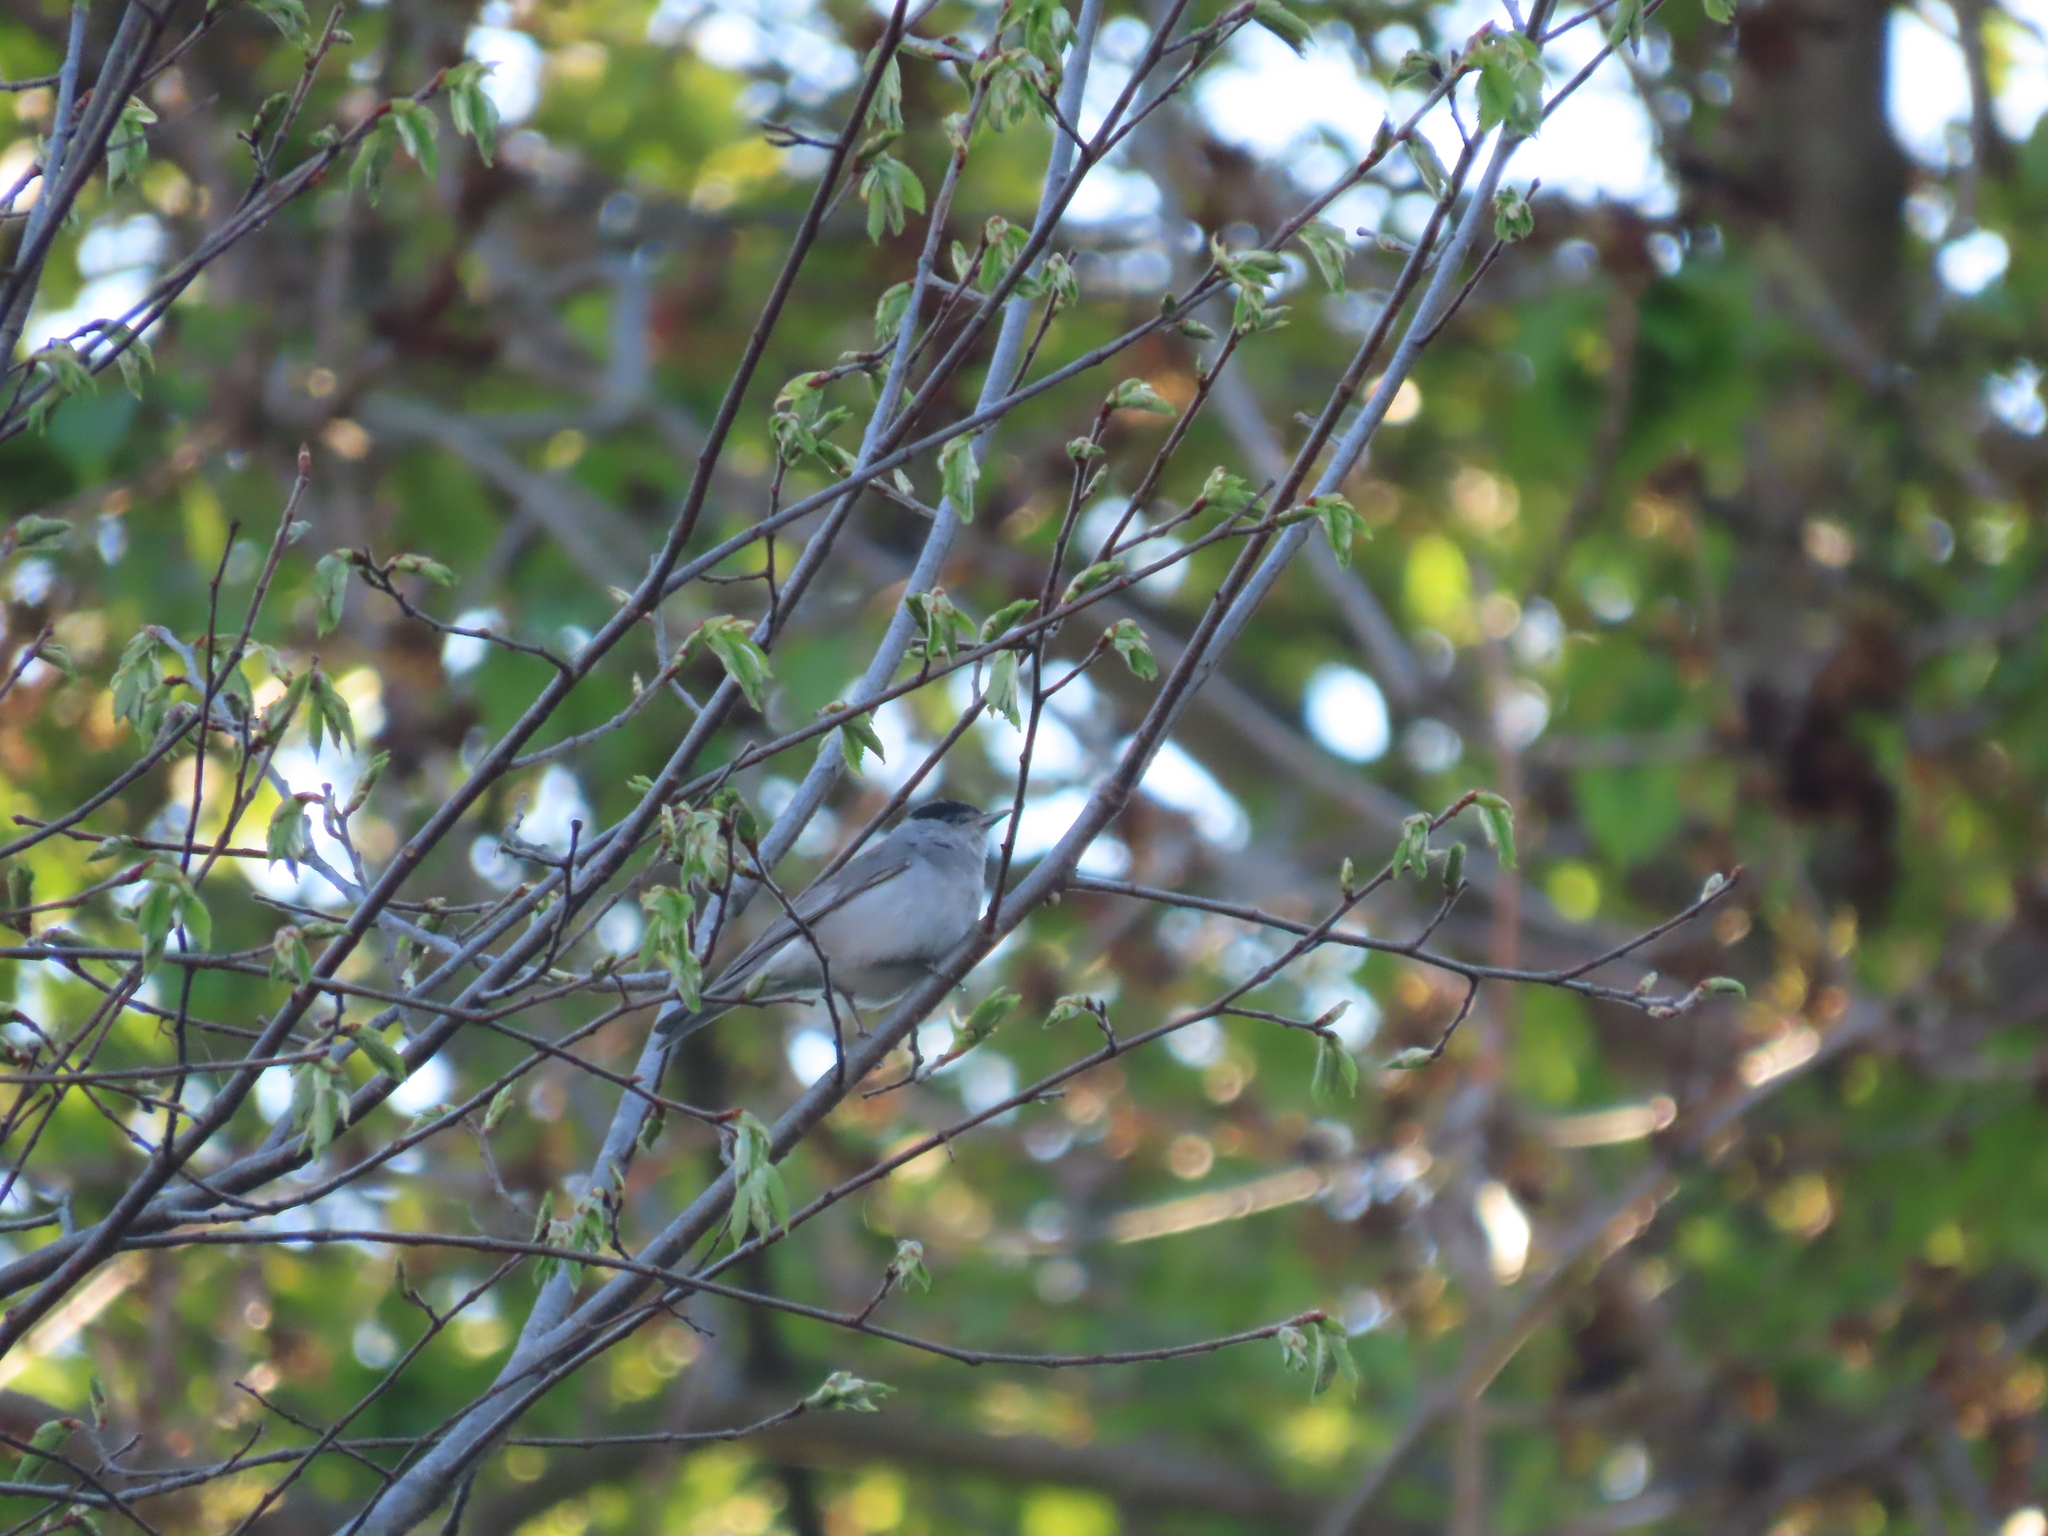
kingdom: Animalia
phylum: Chordata
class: Aves
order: Passeriformes
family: Sylviidae
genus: Sylvia
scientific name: Sylvia atricapilla
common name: Eurasian blackcap
